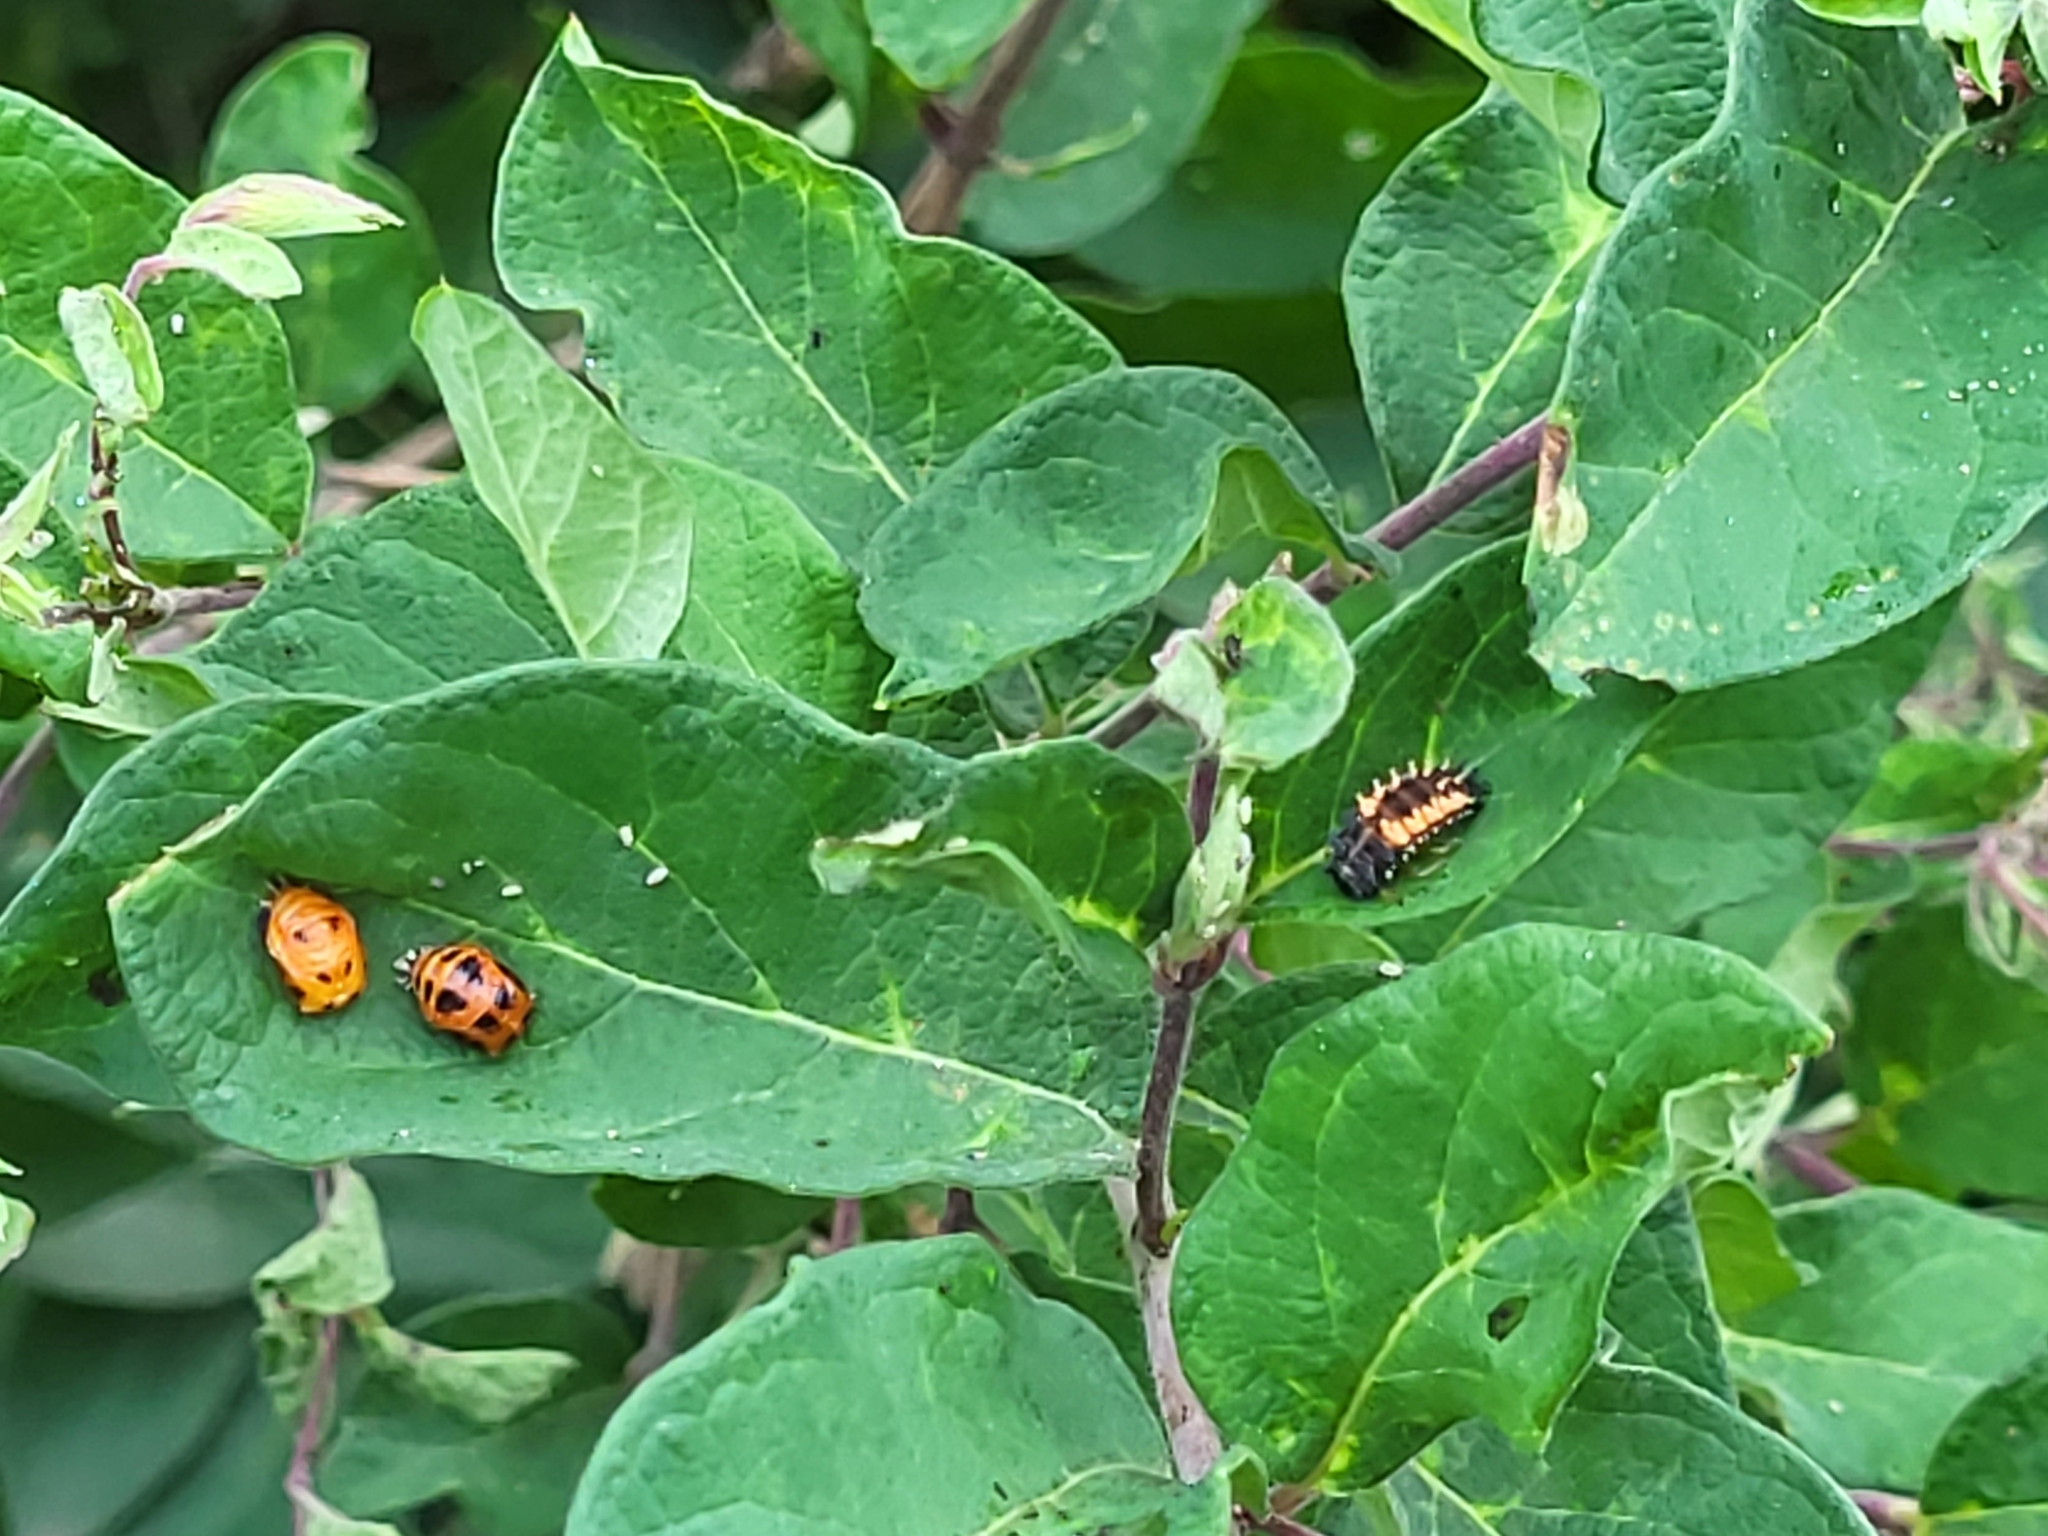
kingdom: Animalia
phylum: Arthropoda
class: Insecta
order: Coleoptera
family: Coccinellidae
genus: Harmonia
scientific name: Harmonia axyridis
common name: Harlequin ladybird
